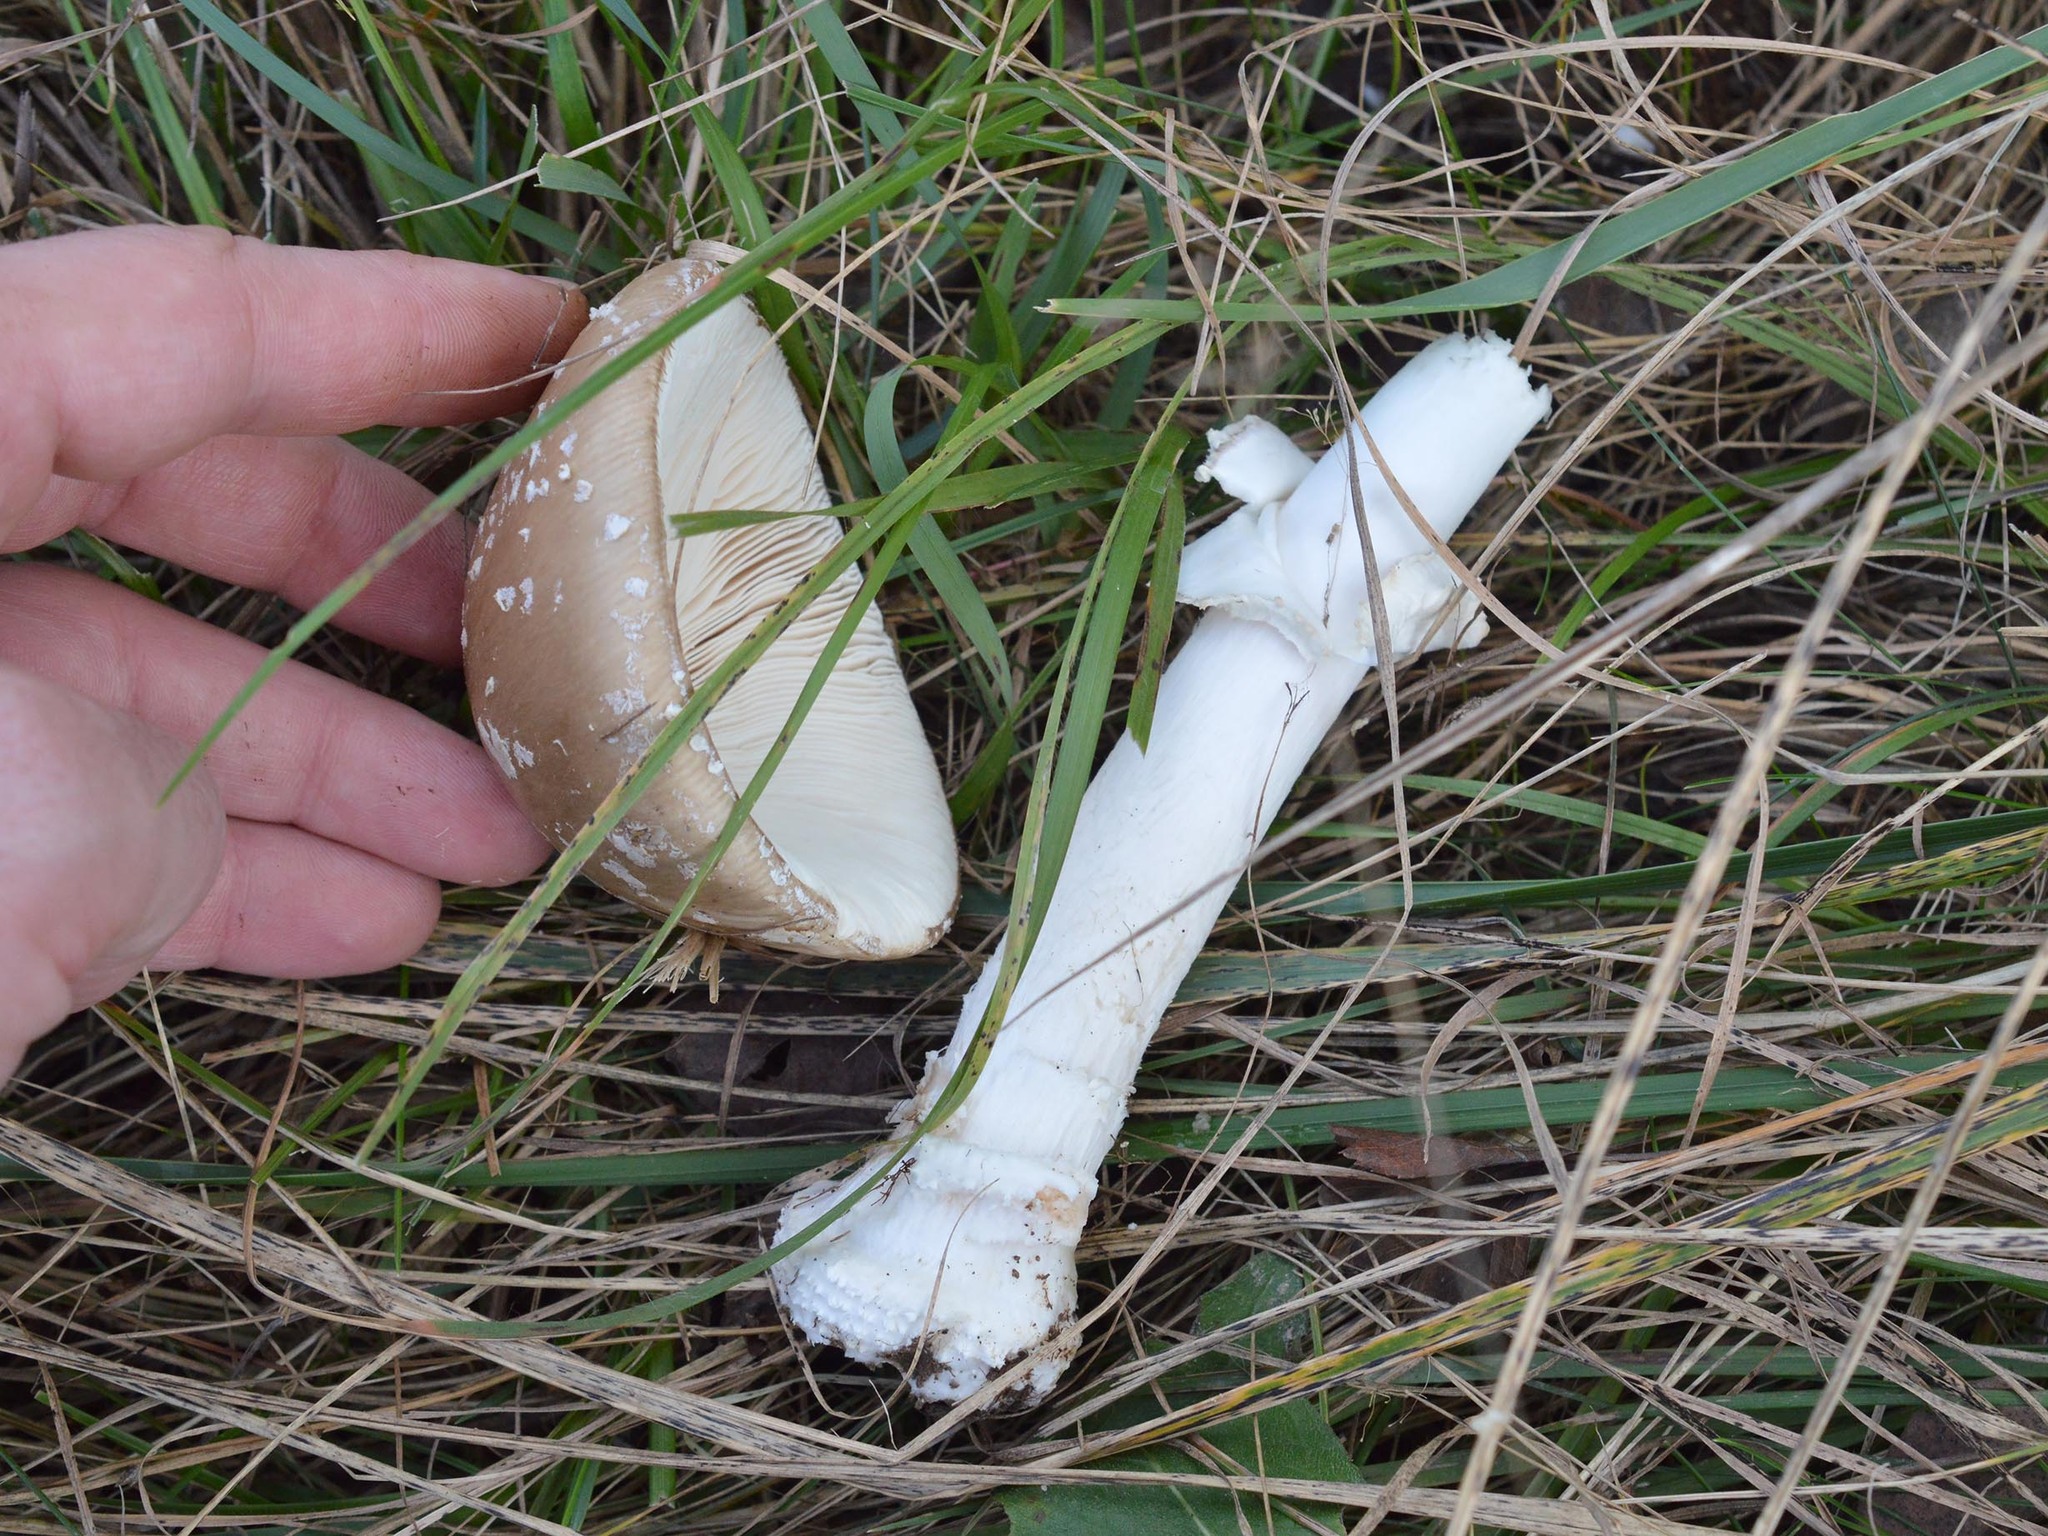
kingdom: Fungi
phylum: Basidiomycota
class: Agaricomycetes
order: Agaricales
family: Amanitaceae
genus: Amanita
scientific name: Amanita pantherina
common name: Panthercap
